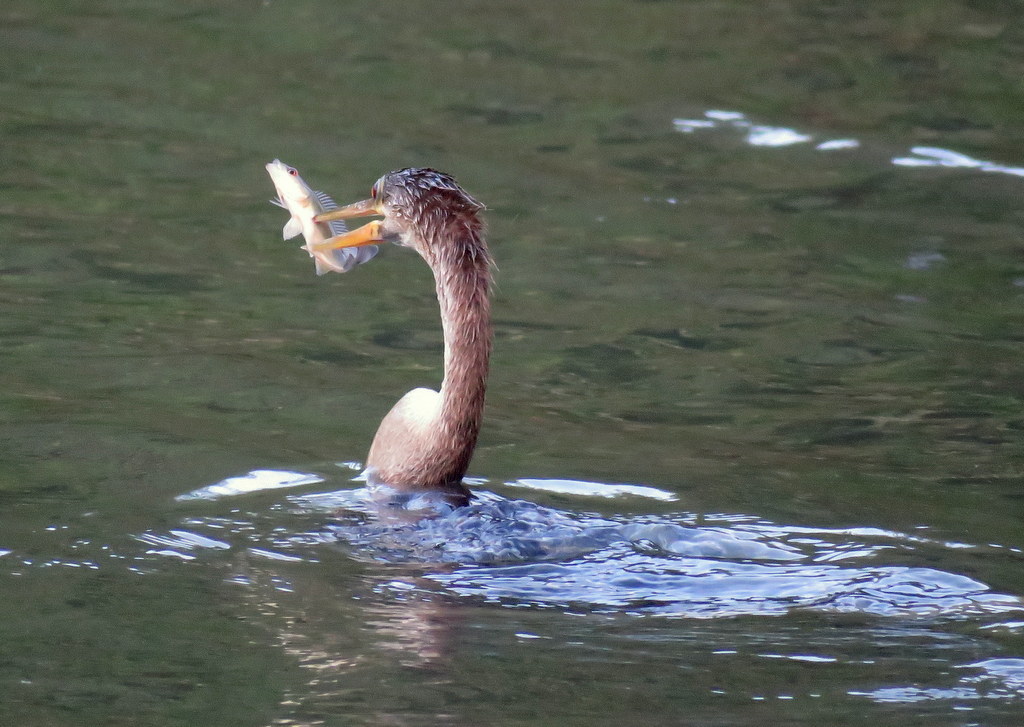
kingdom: Animalia
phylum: Chordata
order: Perciformes
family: Cichlidae
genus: Crenicichla
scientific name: Crenicichla scottii
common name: Pike cichlid
